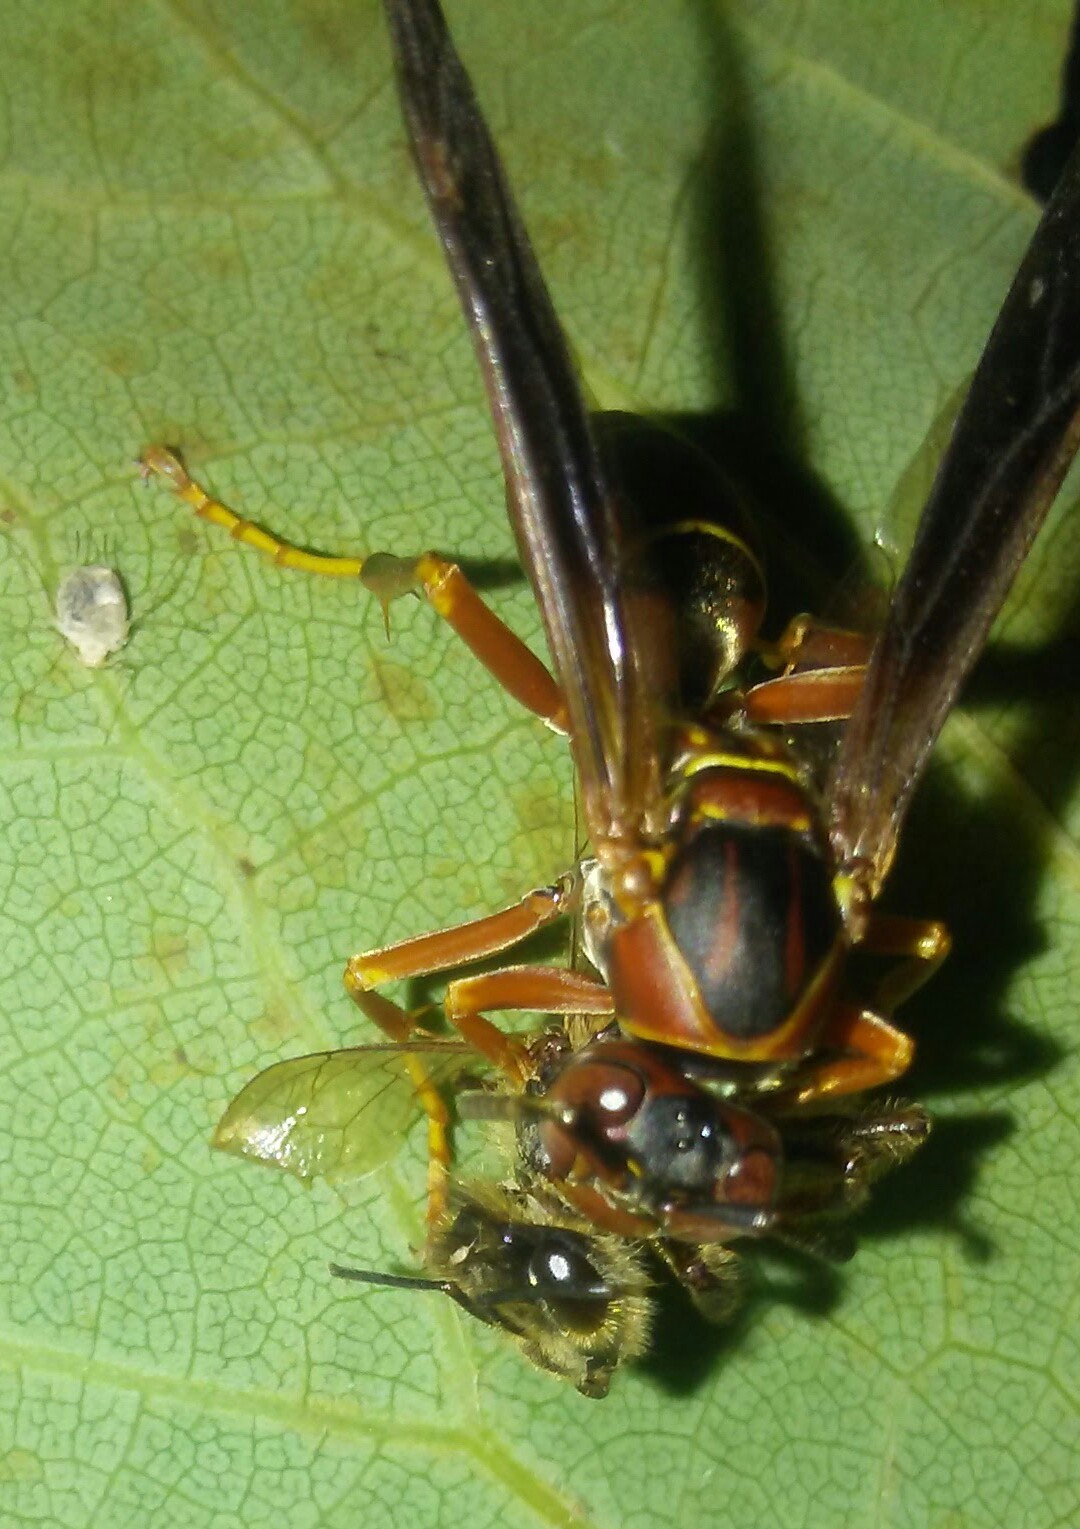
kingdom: Animalia
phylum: Arthropoda
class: Insecta
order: Hymenoptera
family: Eumenidae
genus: Polistes
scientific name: Polistes fuscatus
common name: Dark paper wasp
